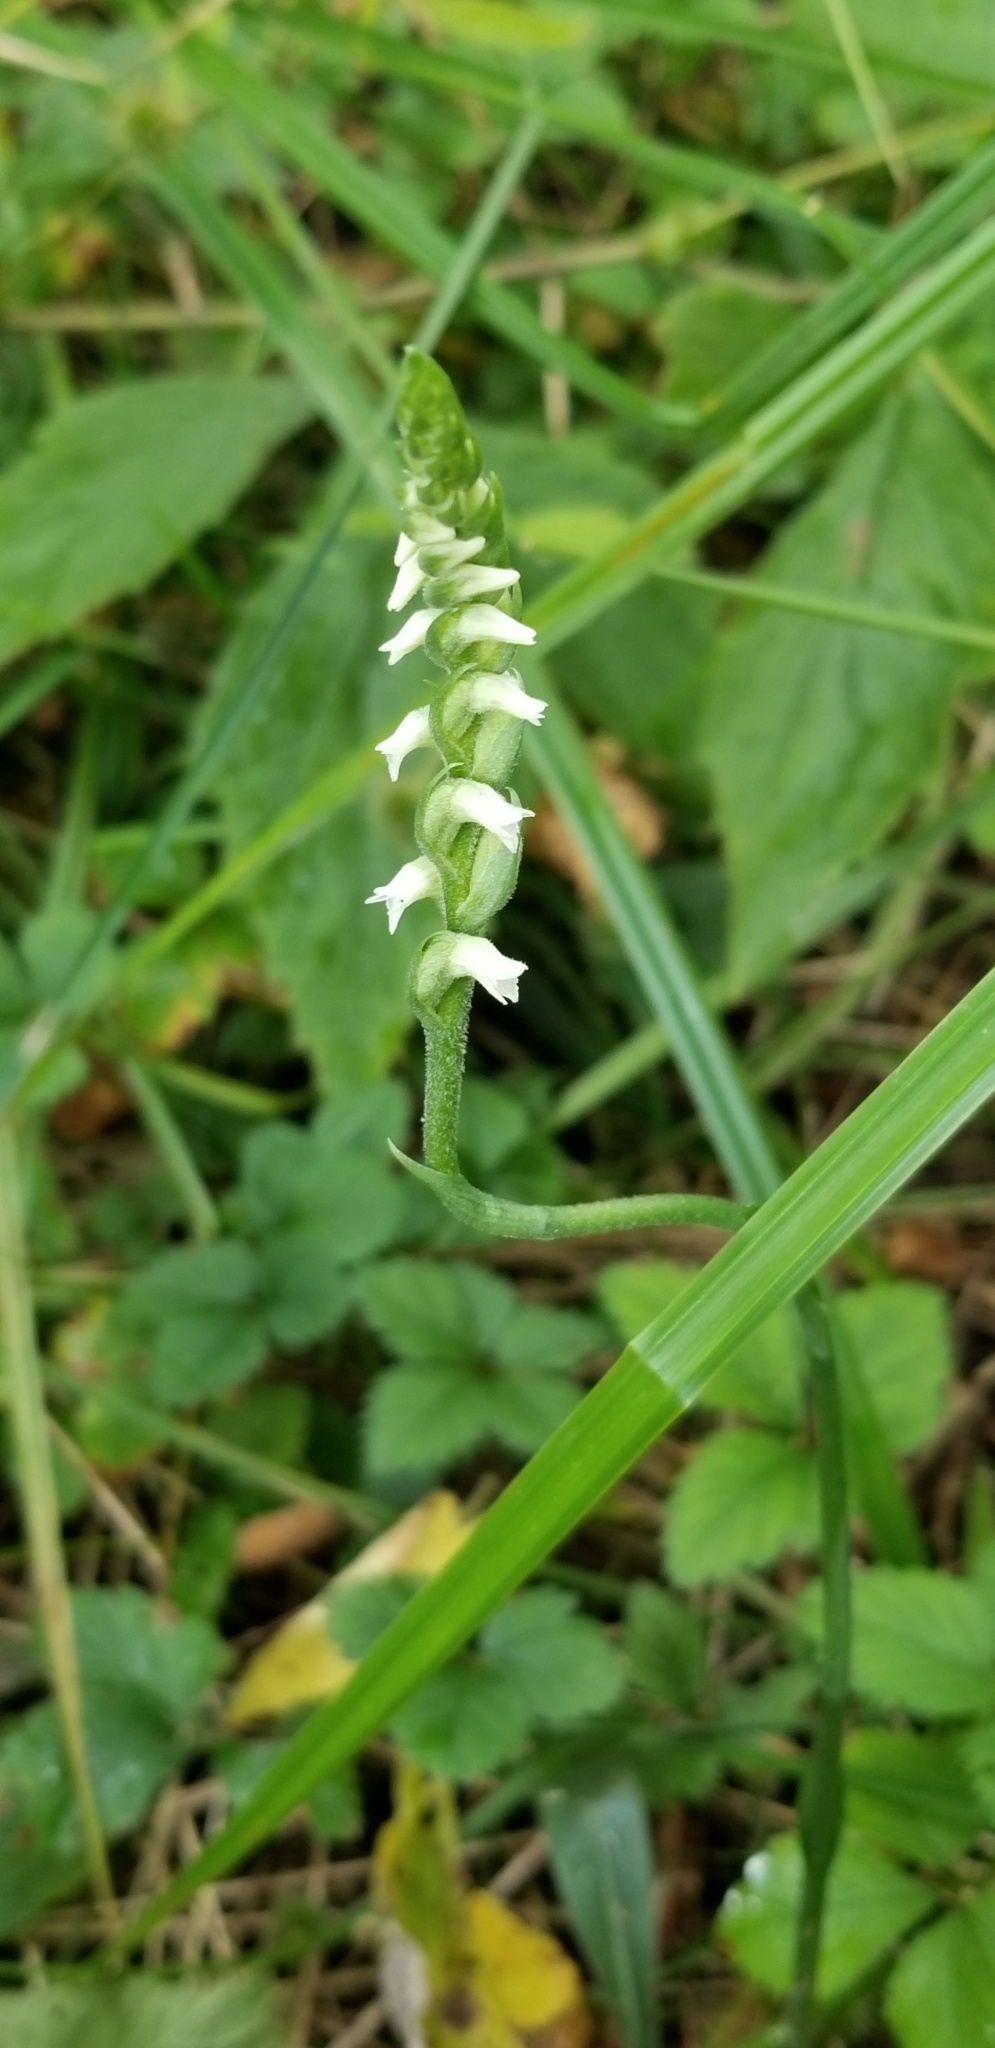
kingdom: Plantae
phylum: Tracheophyta
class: Liliopsida
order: Asparagales
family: Orchidaceae
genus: Spiranthes
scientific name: Spiranthes ovalis
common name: October ladies'-tresses
